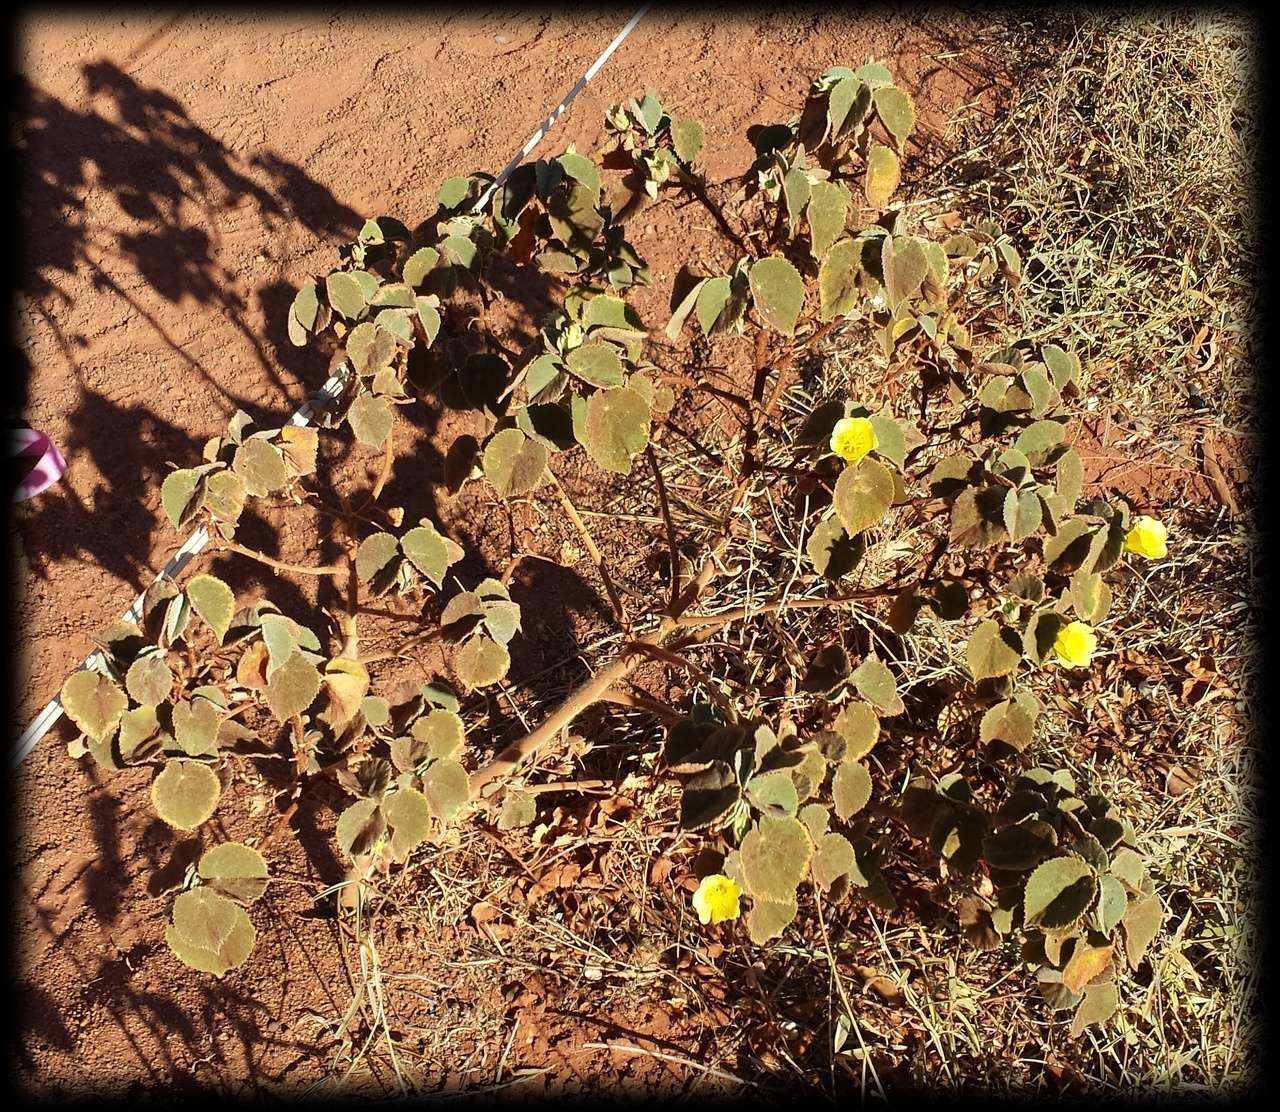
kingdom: Plantae
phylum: Tracheophyta
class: Magnoliopsida
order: Malvales
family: Malvaceae
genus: Abutilon
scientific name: Abutilon otocarpum
